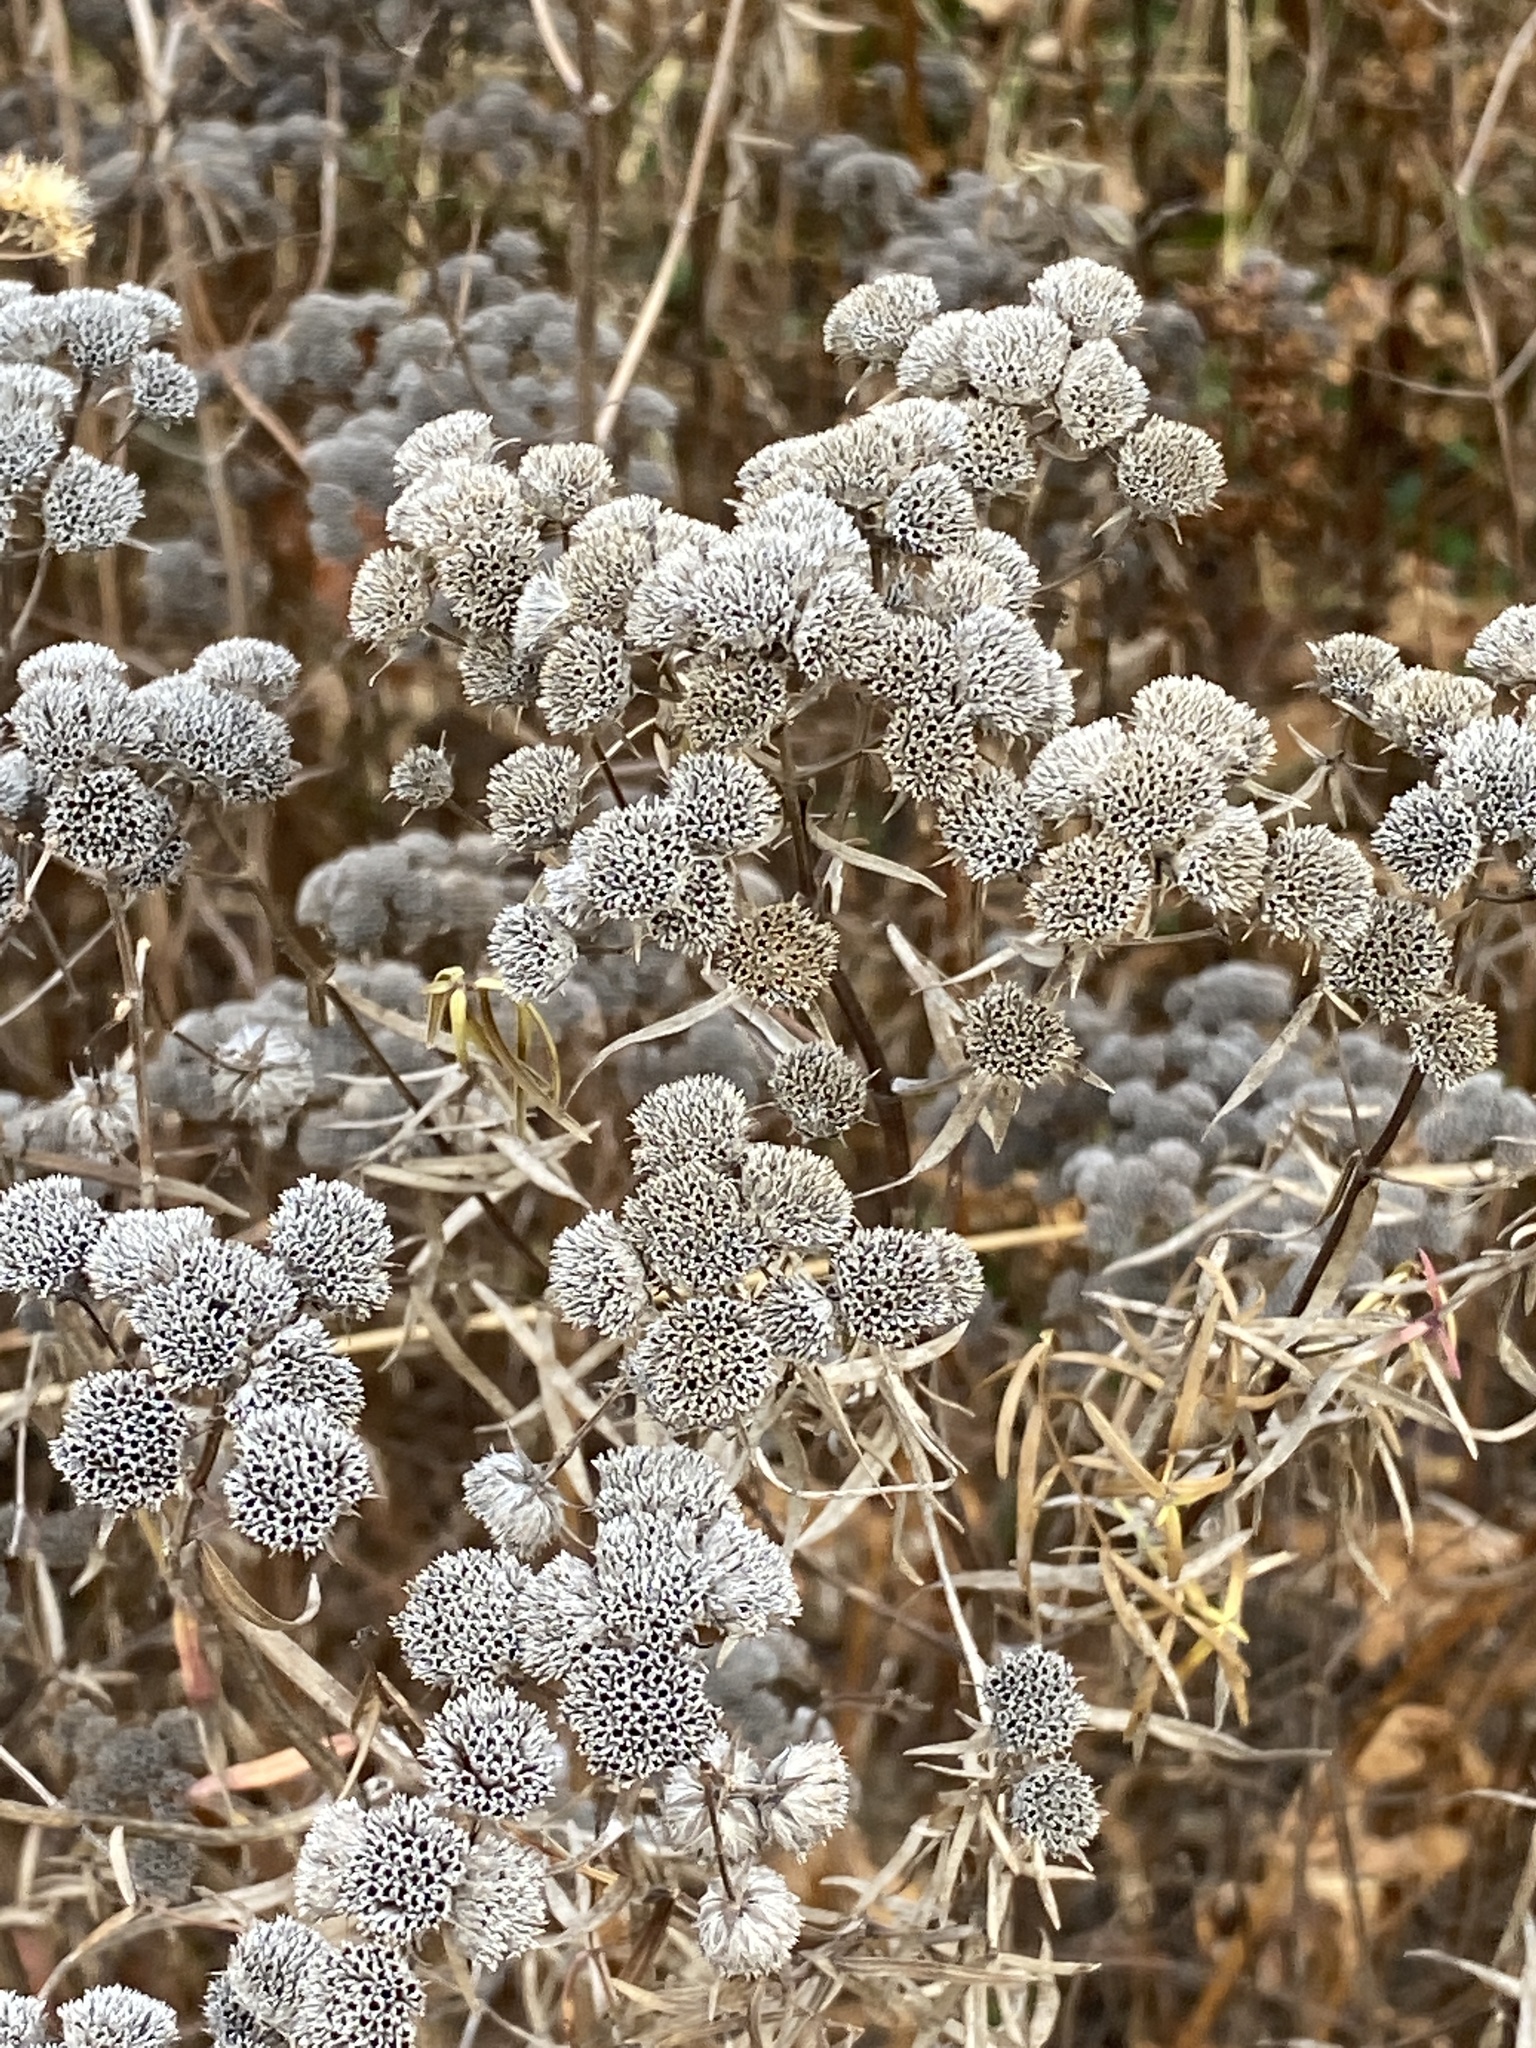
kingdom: Plantae
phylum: Tracheophyta
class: Magnoliopsida
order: Lamiales
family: Lamiaceae
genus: Pycnanthemum
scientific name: Pycnanthemum tenuifolium
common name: Narrow-leaf mountain-mint
